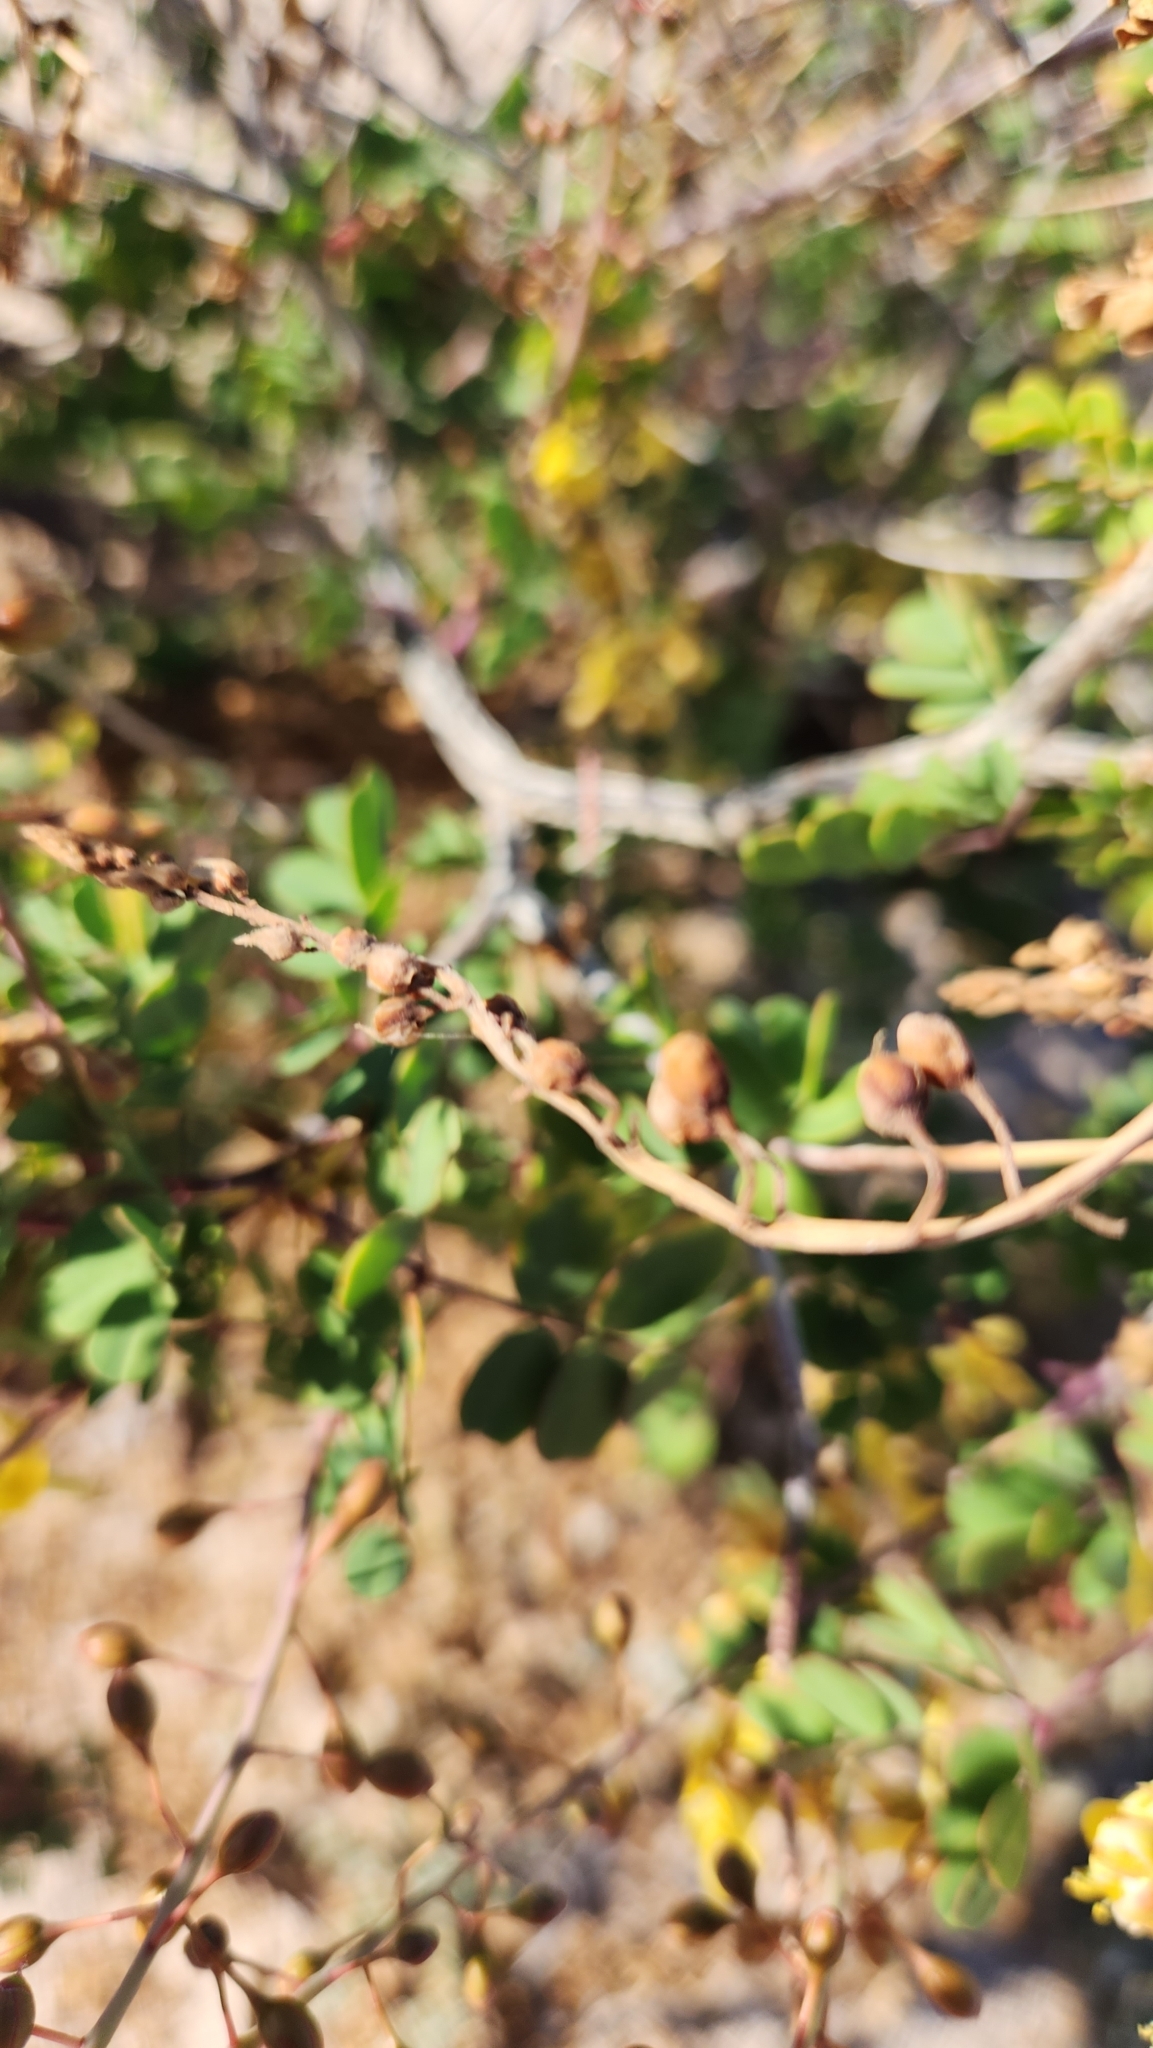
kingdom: Plantae
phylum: Tracheophyta
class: Magnoliopsida
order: Fabales
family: Fabaceae
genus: Erythrostemon
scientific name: Erythrostemon pannosus
